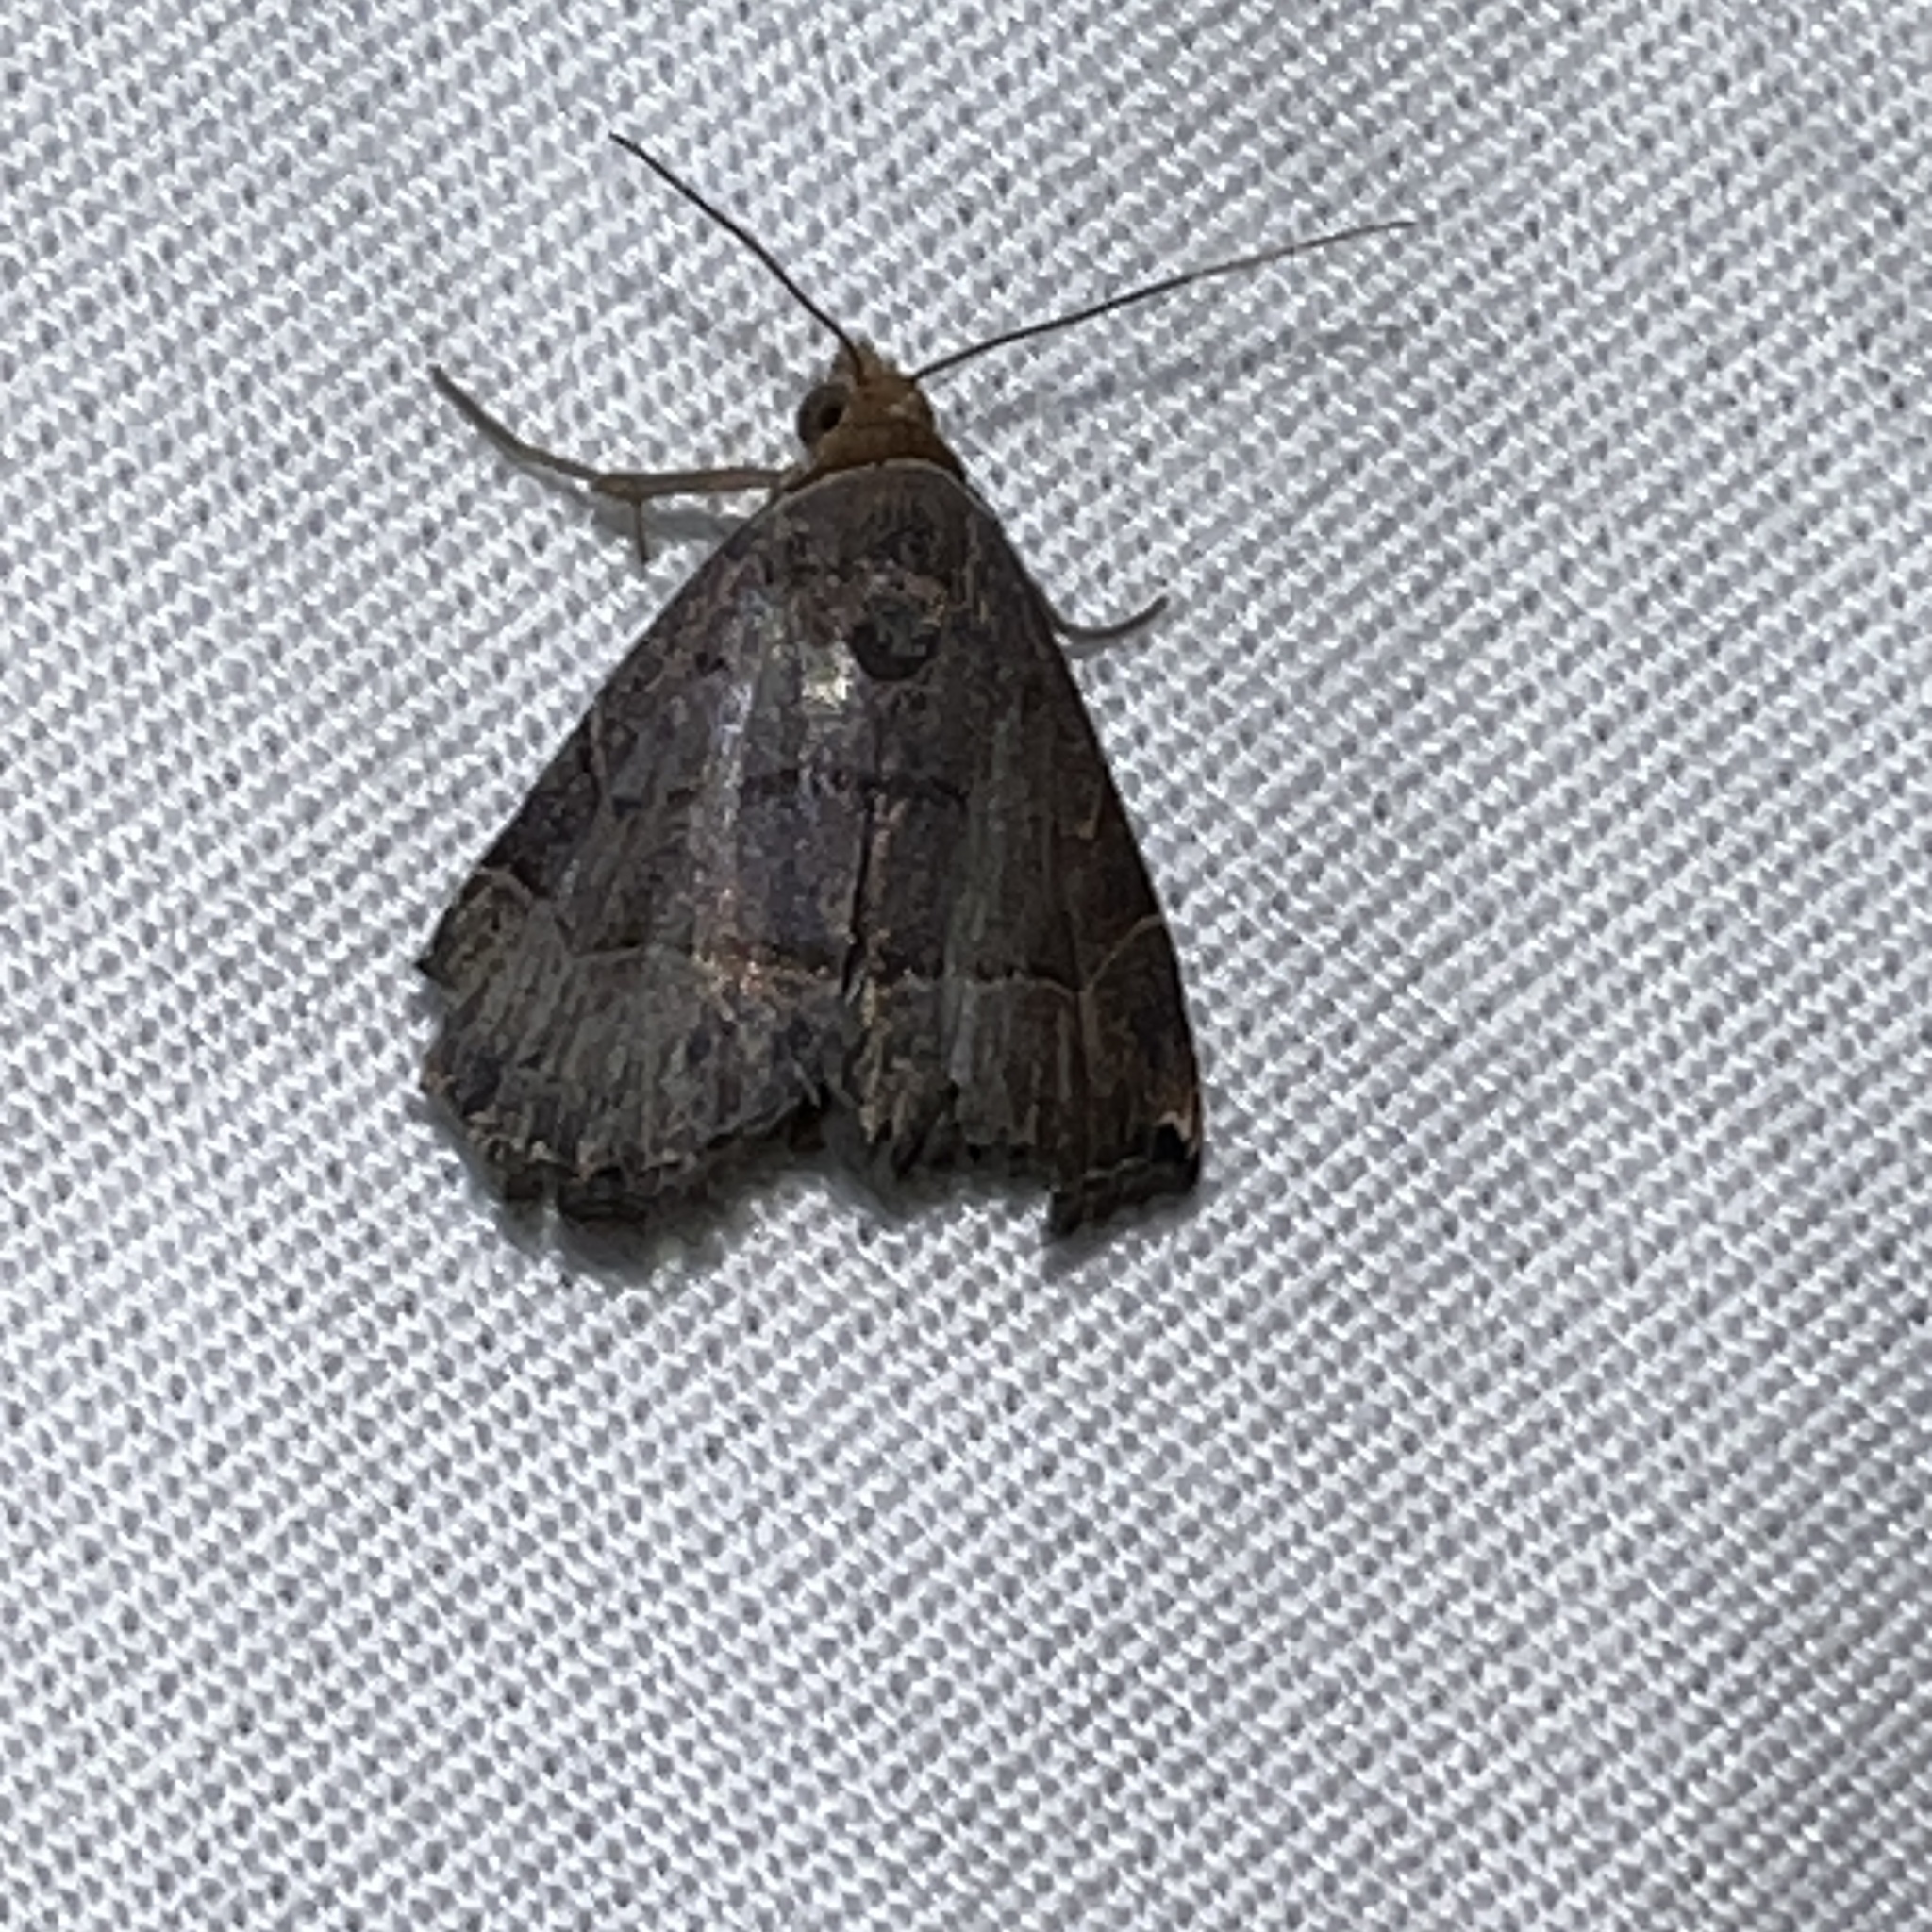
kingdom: Animalia
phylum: Arthropoda
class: Insecta
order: Lepidoptera
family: Noctuidae
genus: Abacena
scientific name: Abacena mundula
